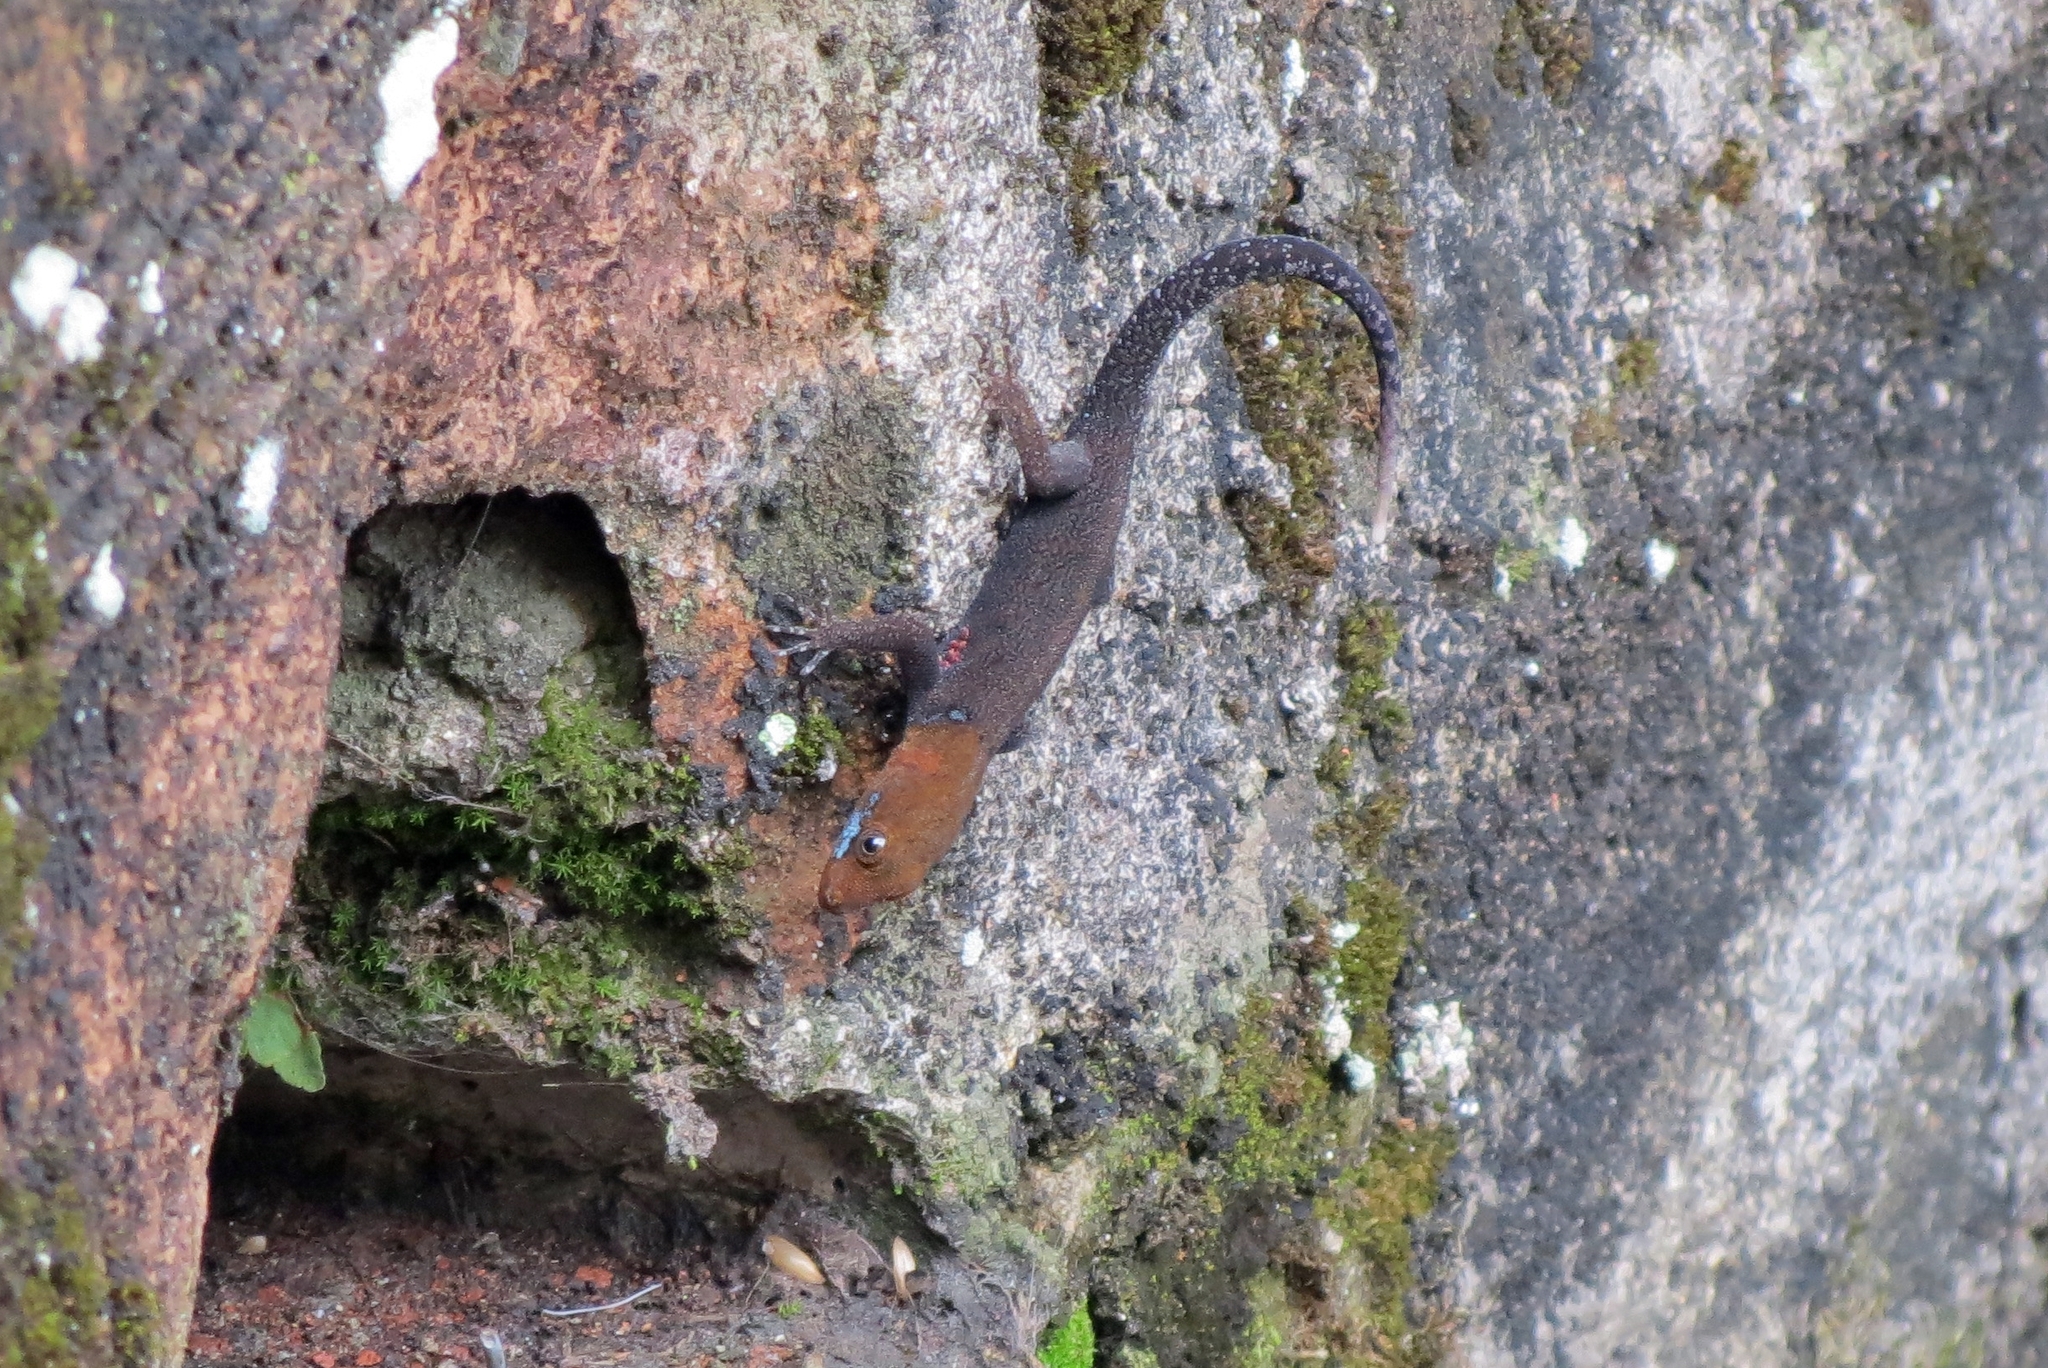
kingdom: Animalia
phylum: Chordata
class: Squamata
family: Sphaerodactylidae
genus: Gonatodes
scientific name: Gonatodes albogularis
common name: Yellow-headed gecko
